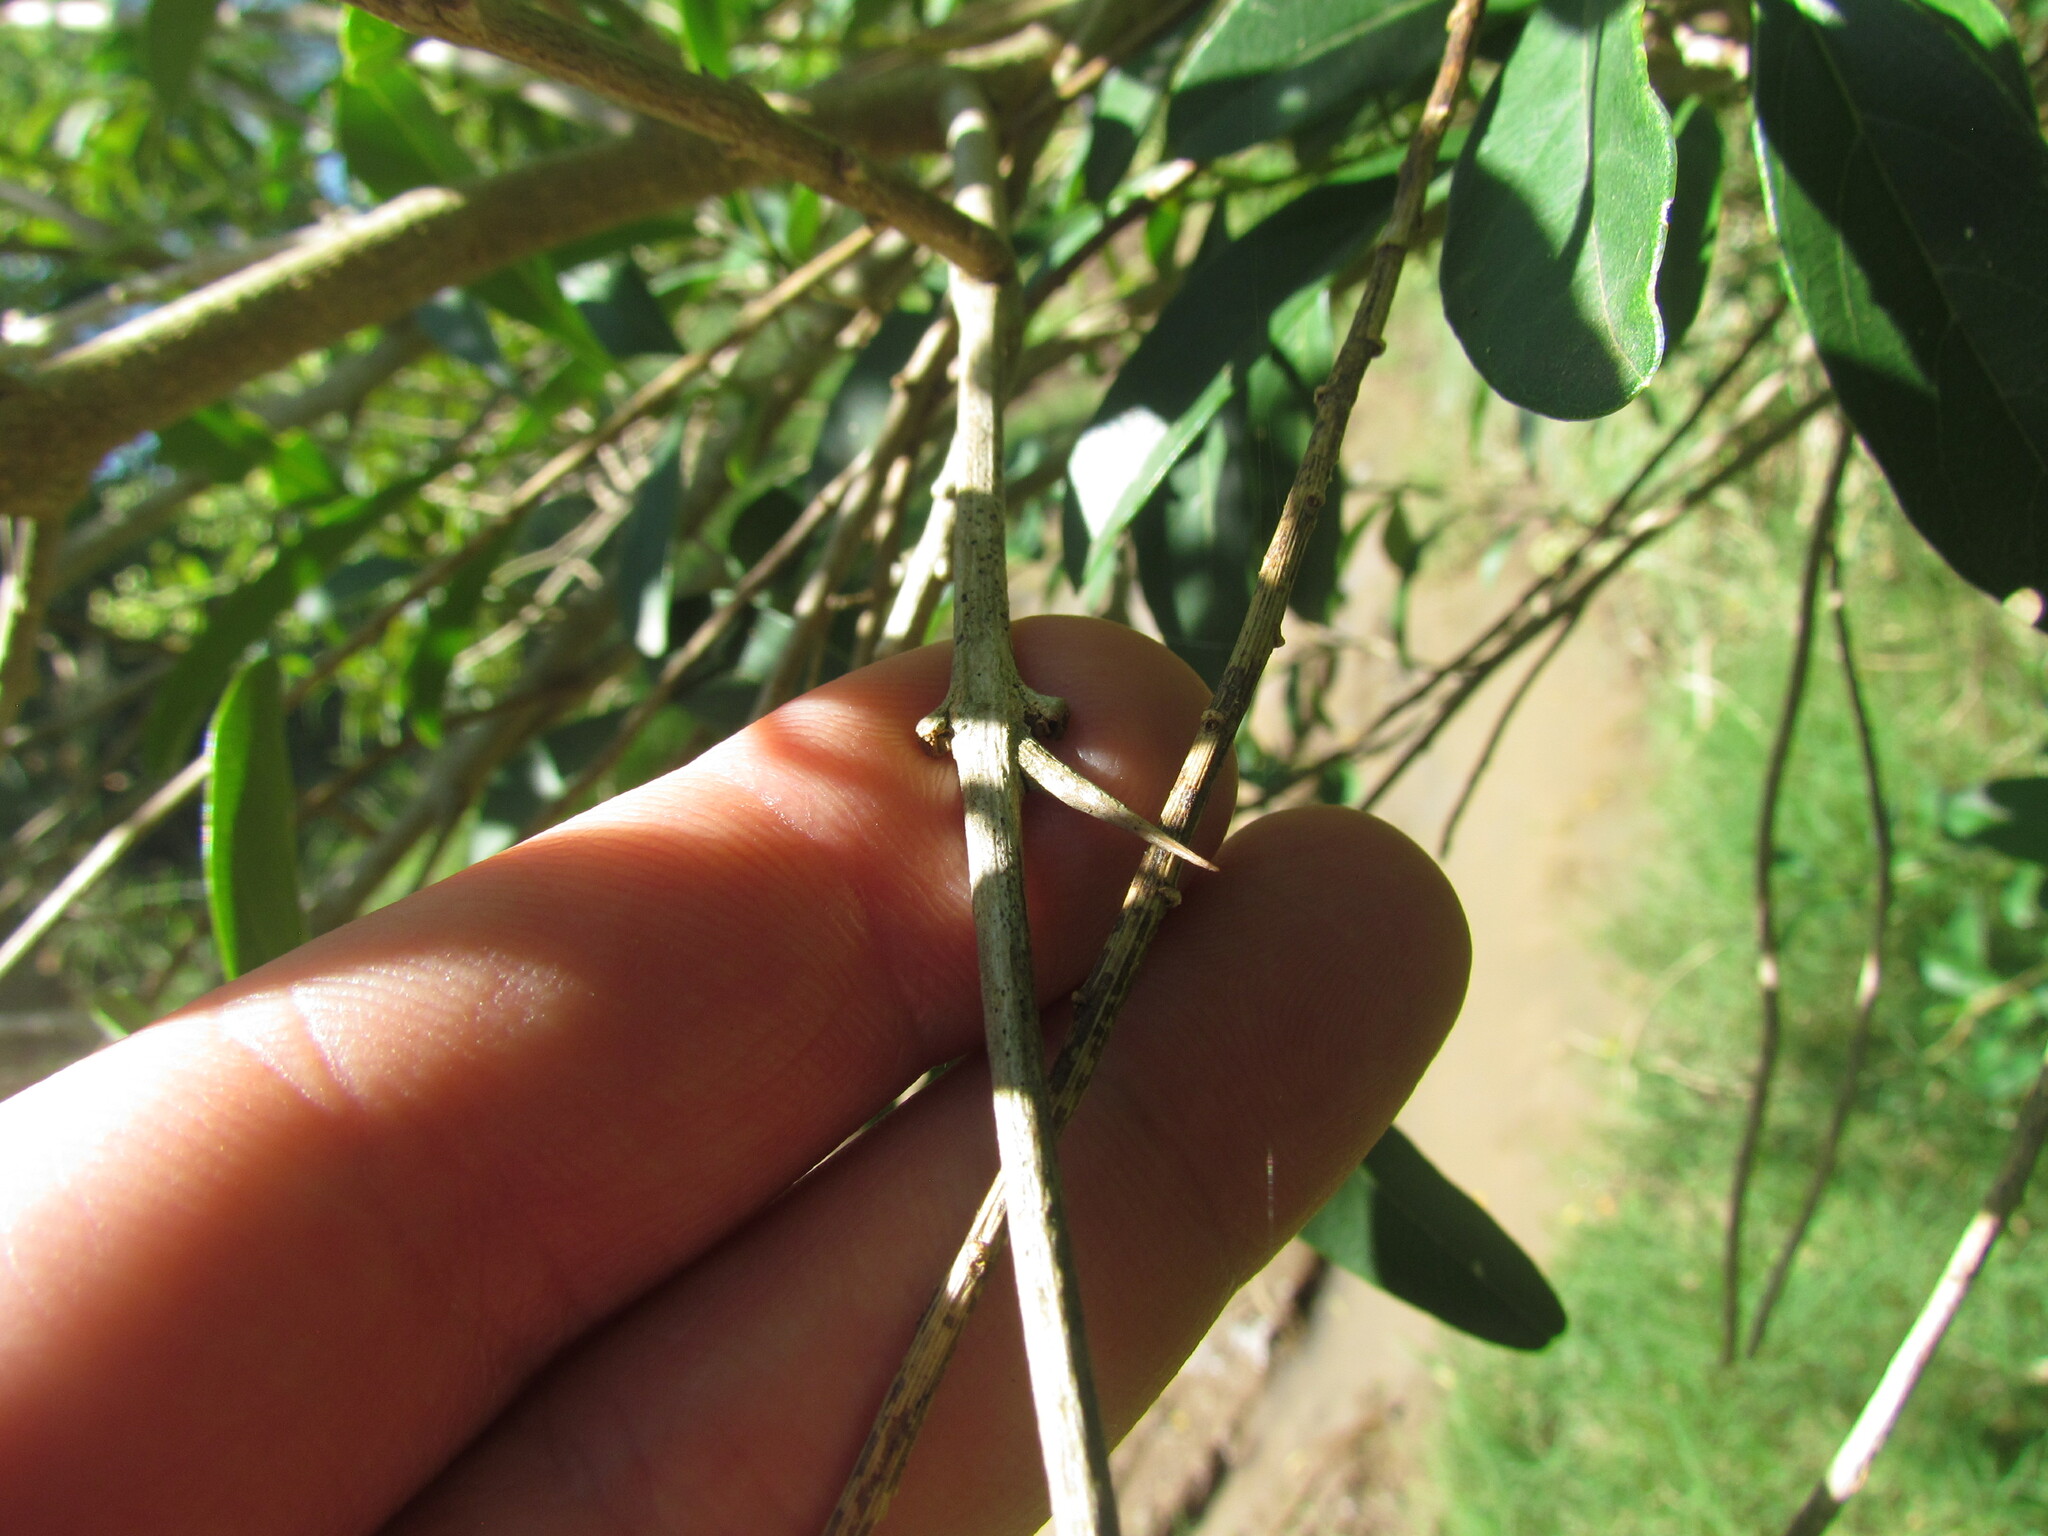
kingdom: Plantae
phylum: Tracheophyta
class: Magnoliopsida
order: Lamiales
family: Verbenaceae
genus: Citharexylum
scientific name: Citharexylum montevidense
